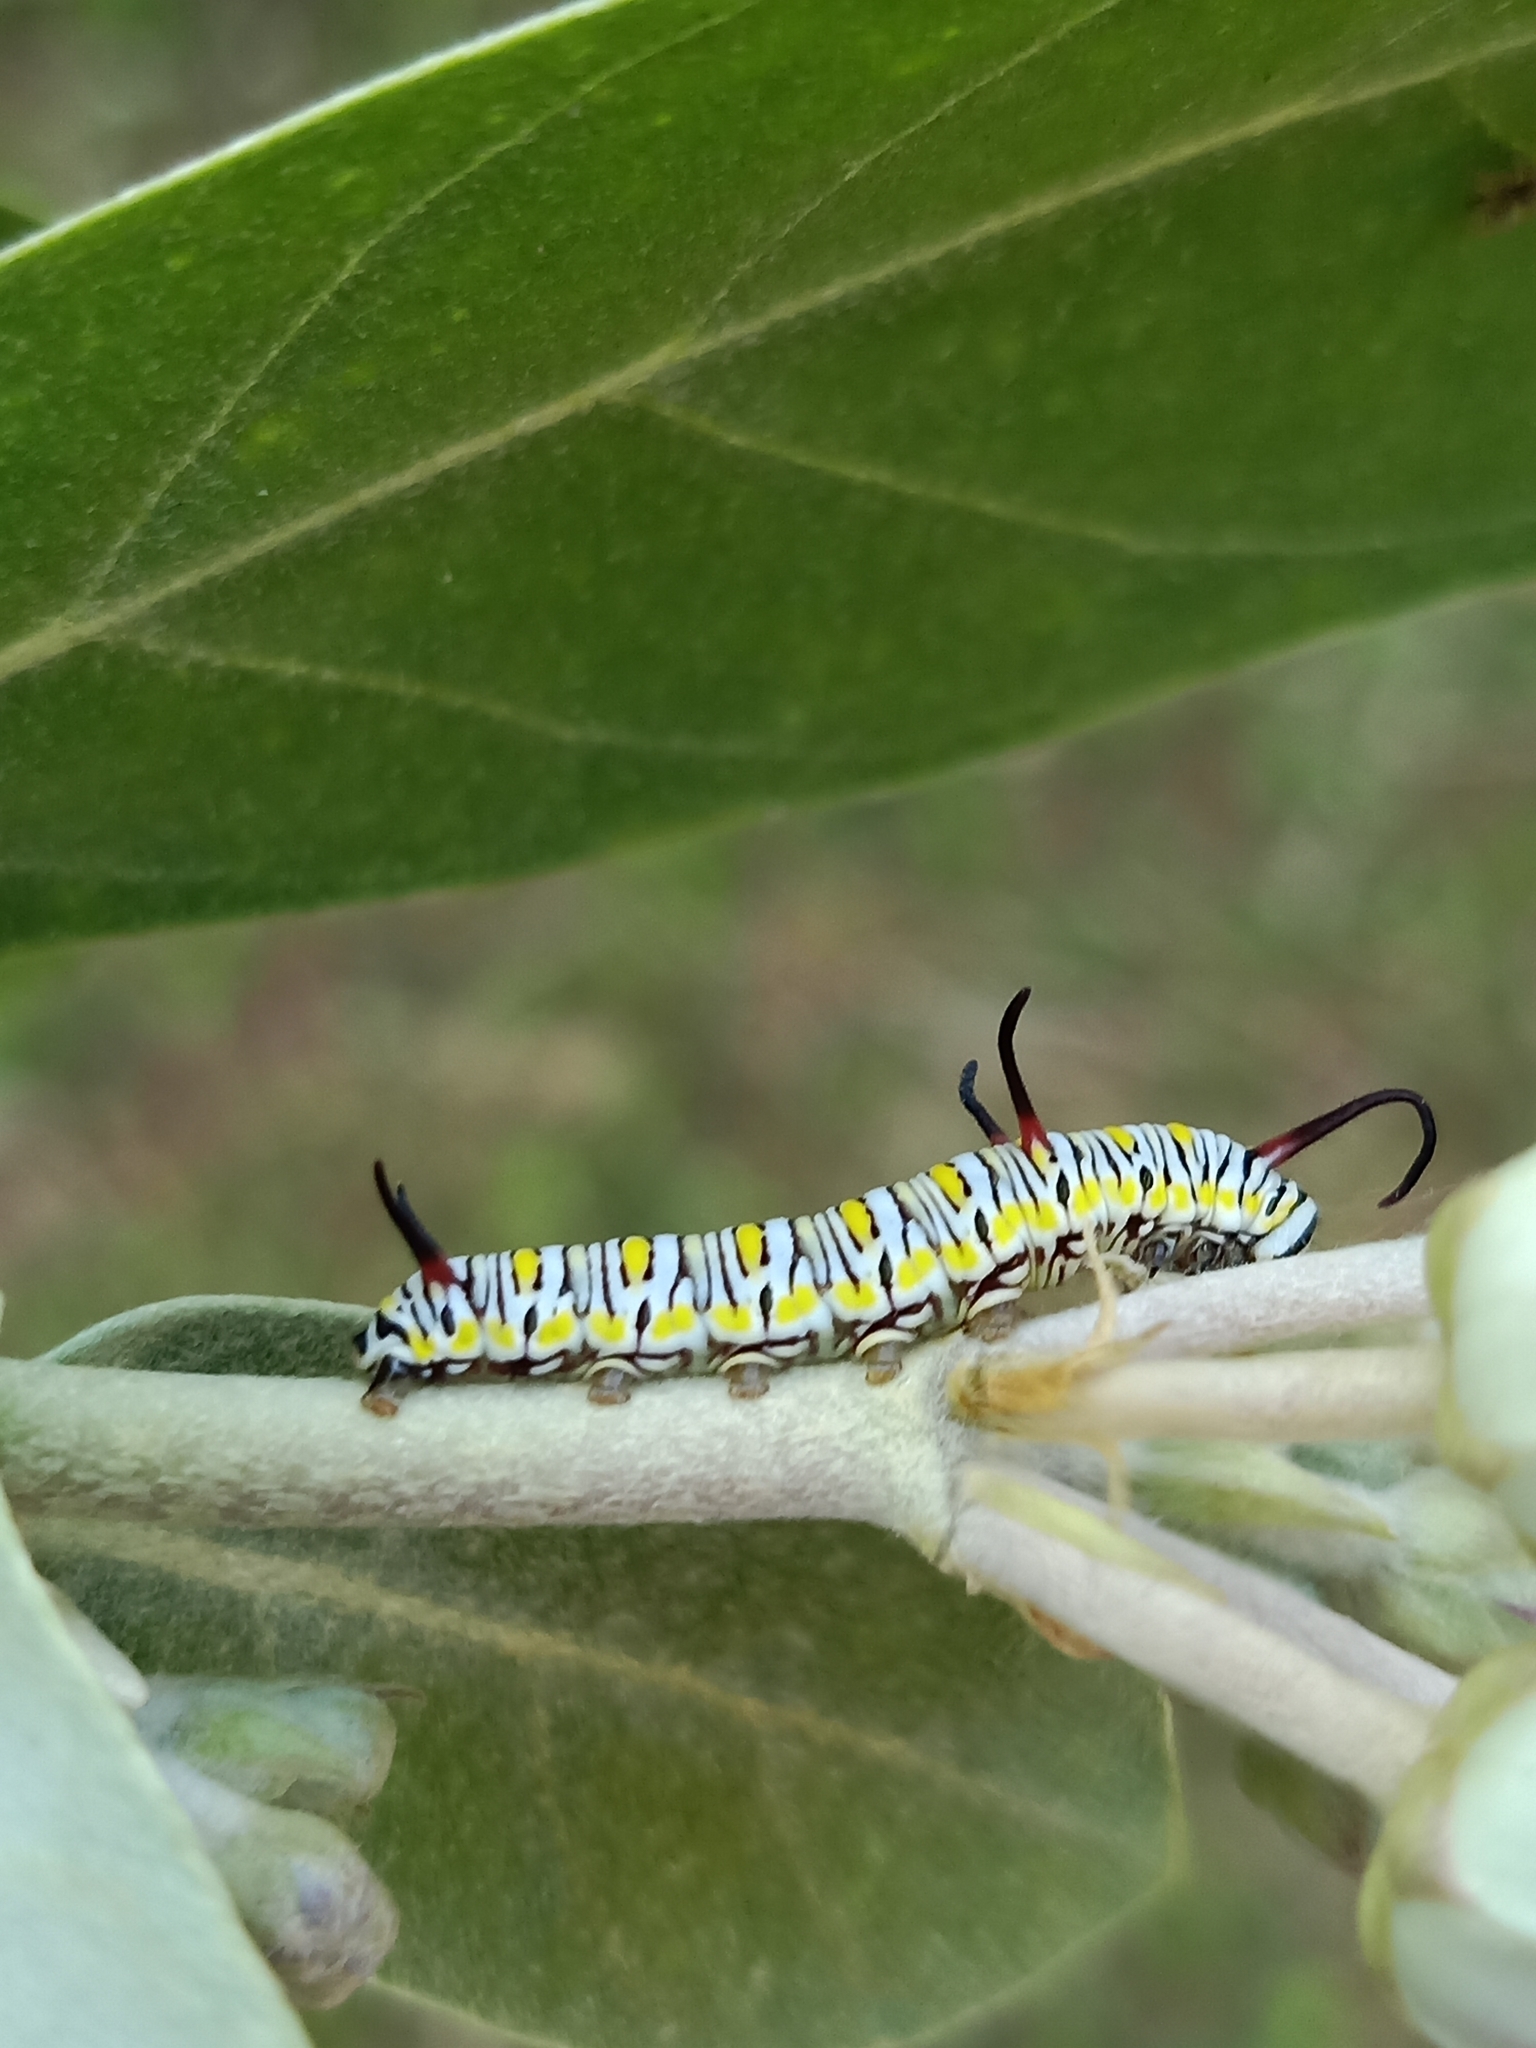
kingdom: Animalia
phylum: Arthropoda
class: Insecta
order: Lepidoptera
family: Nymphalidae
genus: Danaus
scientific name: Danaus chrysippus
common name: Plain tiger
